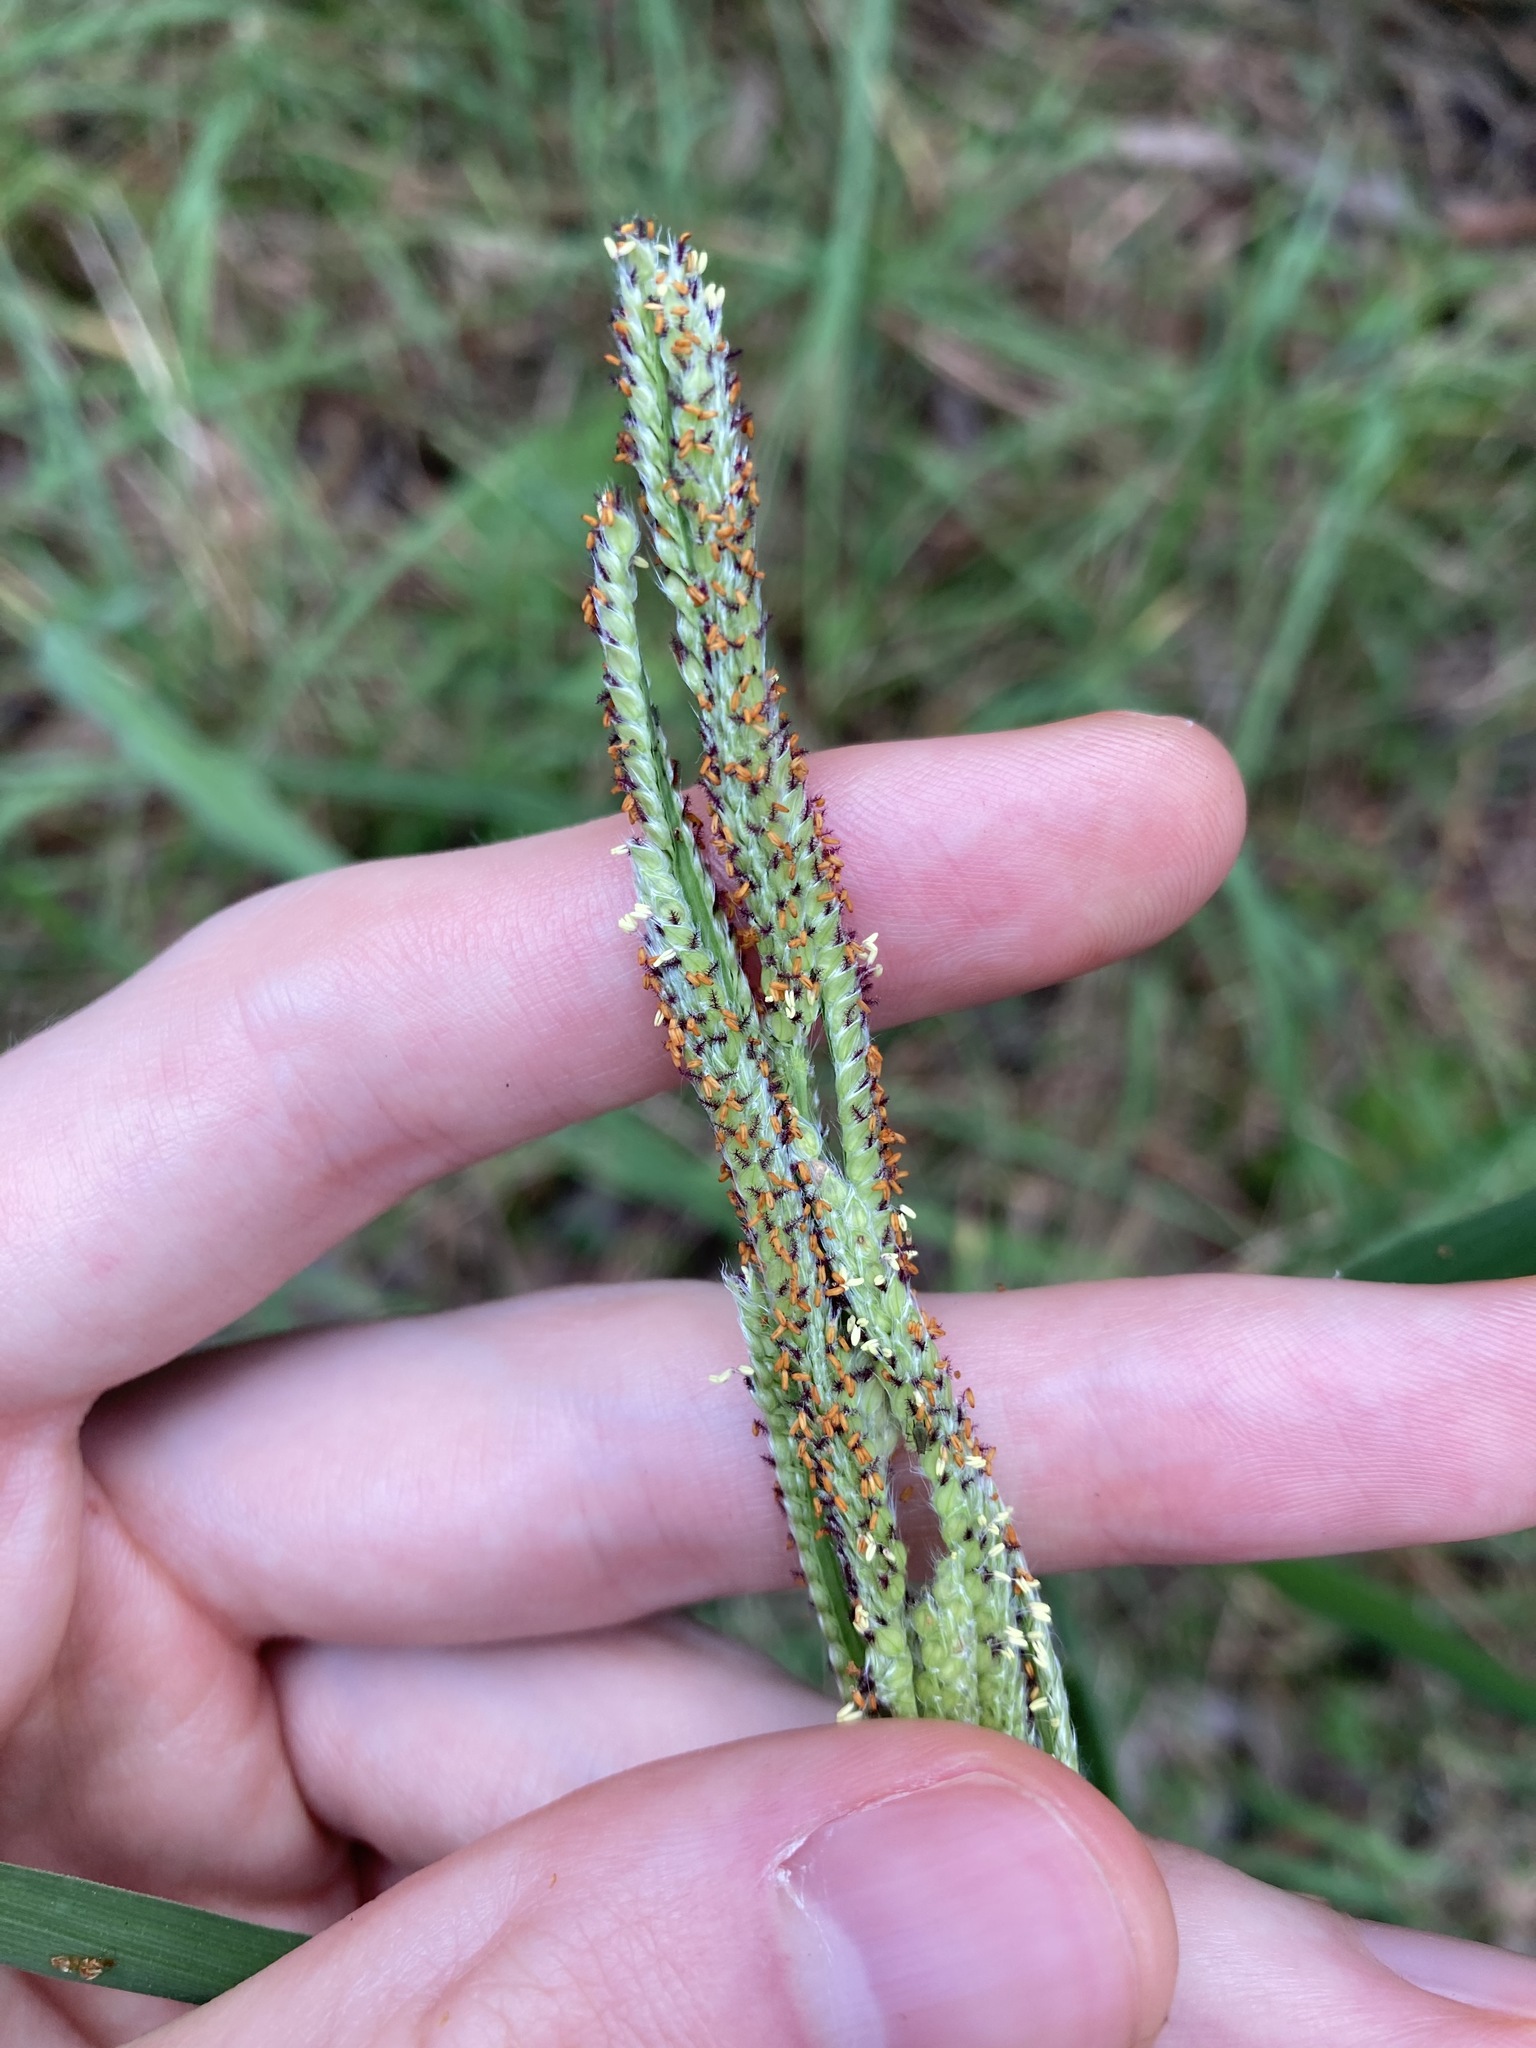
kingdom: Plantae
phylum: Tracheophyta
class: Liliopsida
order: Poales
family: Poaceae
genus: Paspalum
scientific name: Paspalum urvillei
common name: Vasey's grass
